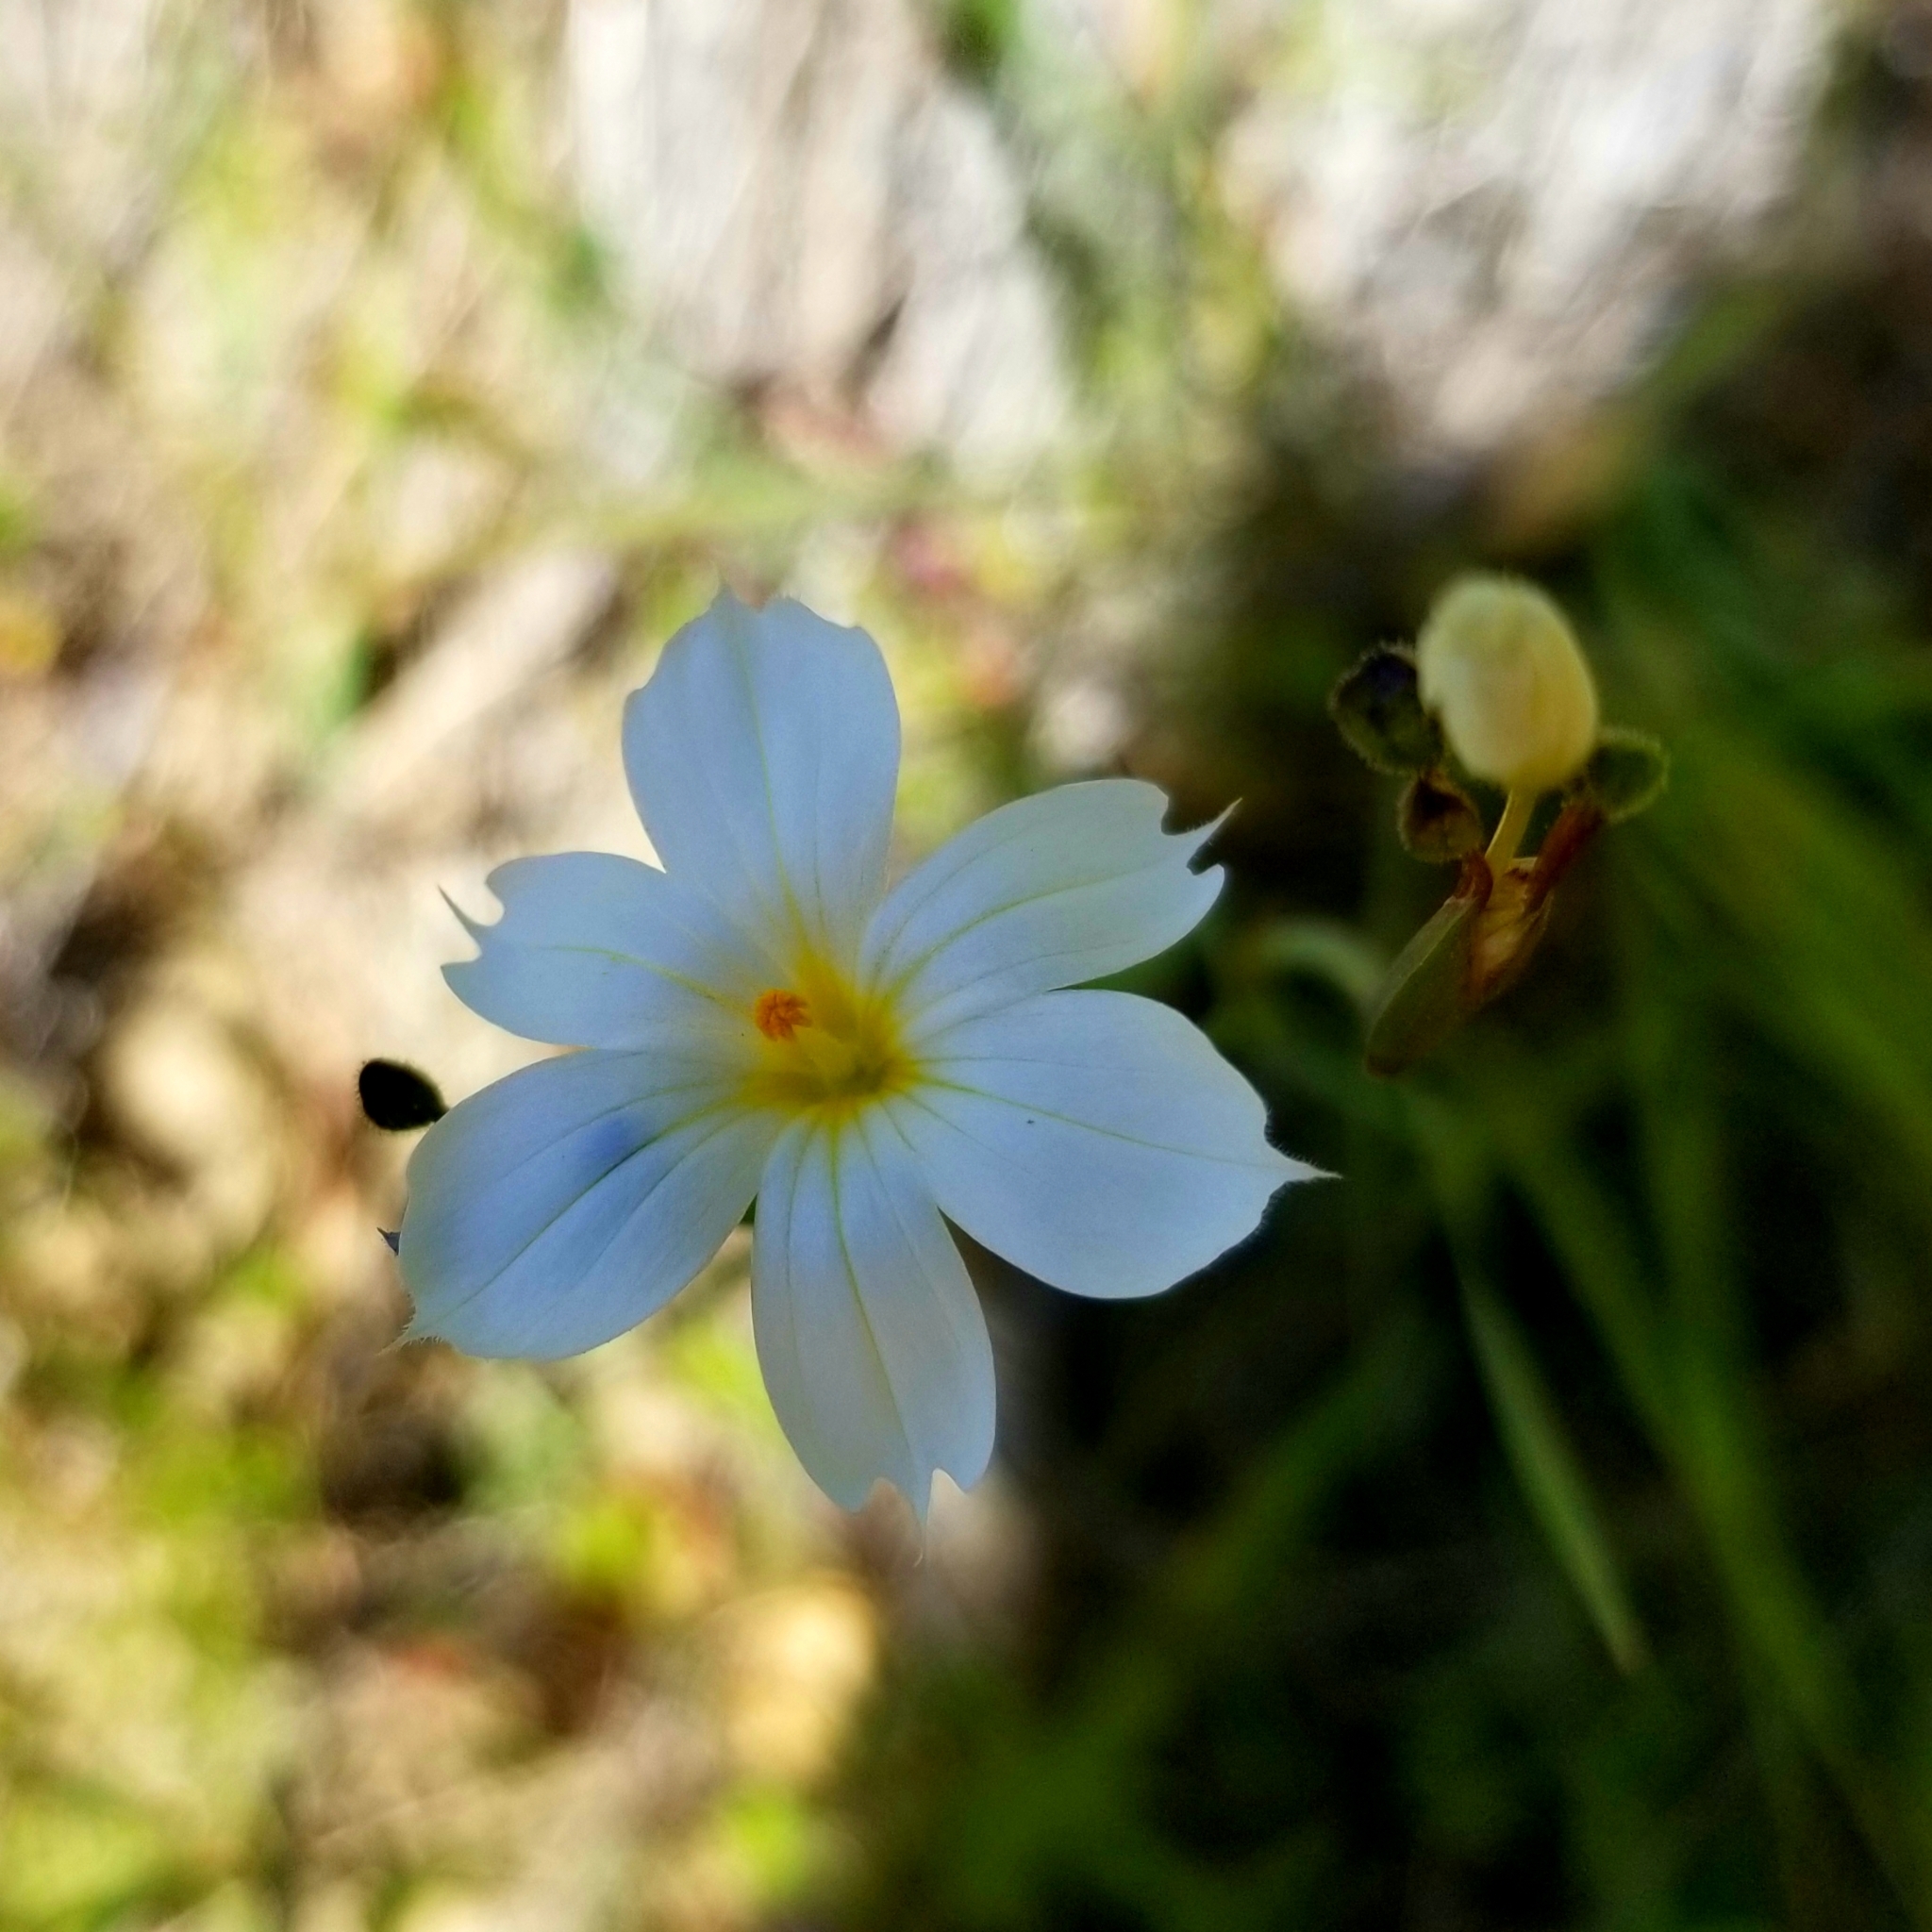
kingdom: Plantae
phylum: Tracheophyta
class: Liliopsida
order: Asparagales
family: Iridaceae
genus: Sisyrinchium
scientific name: Sisyrinchium bellum
